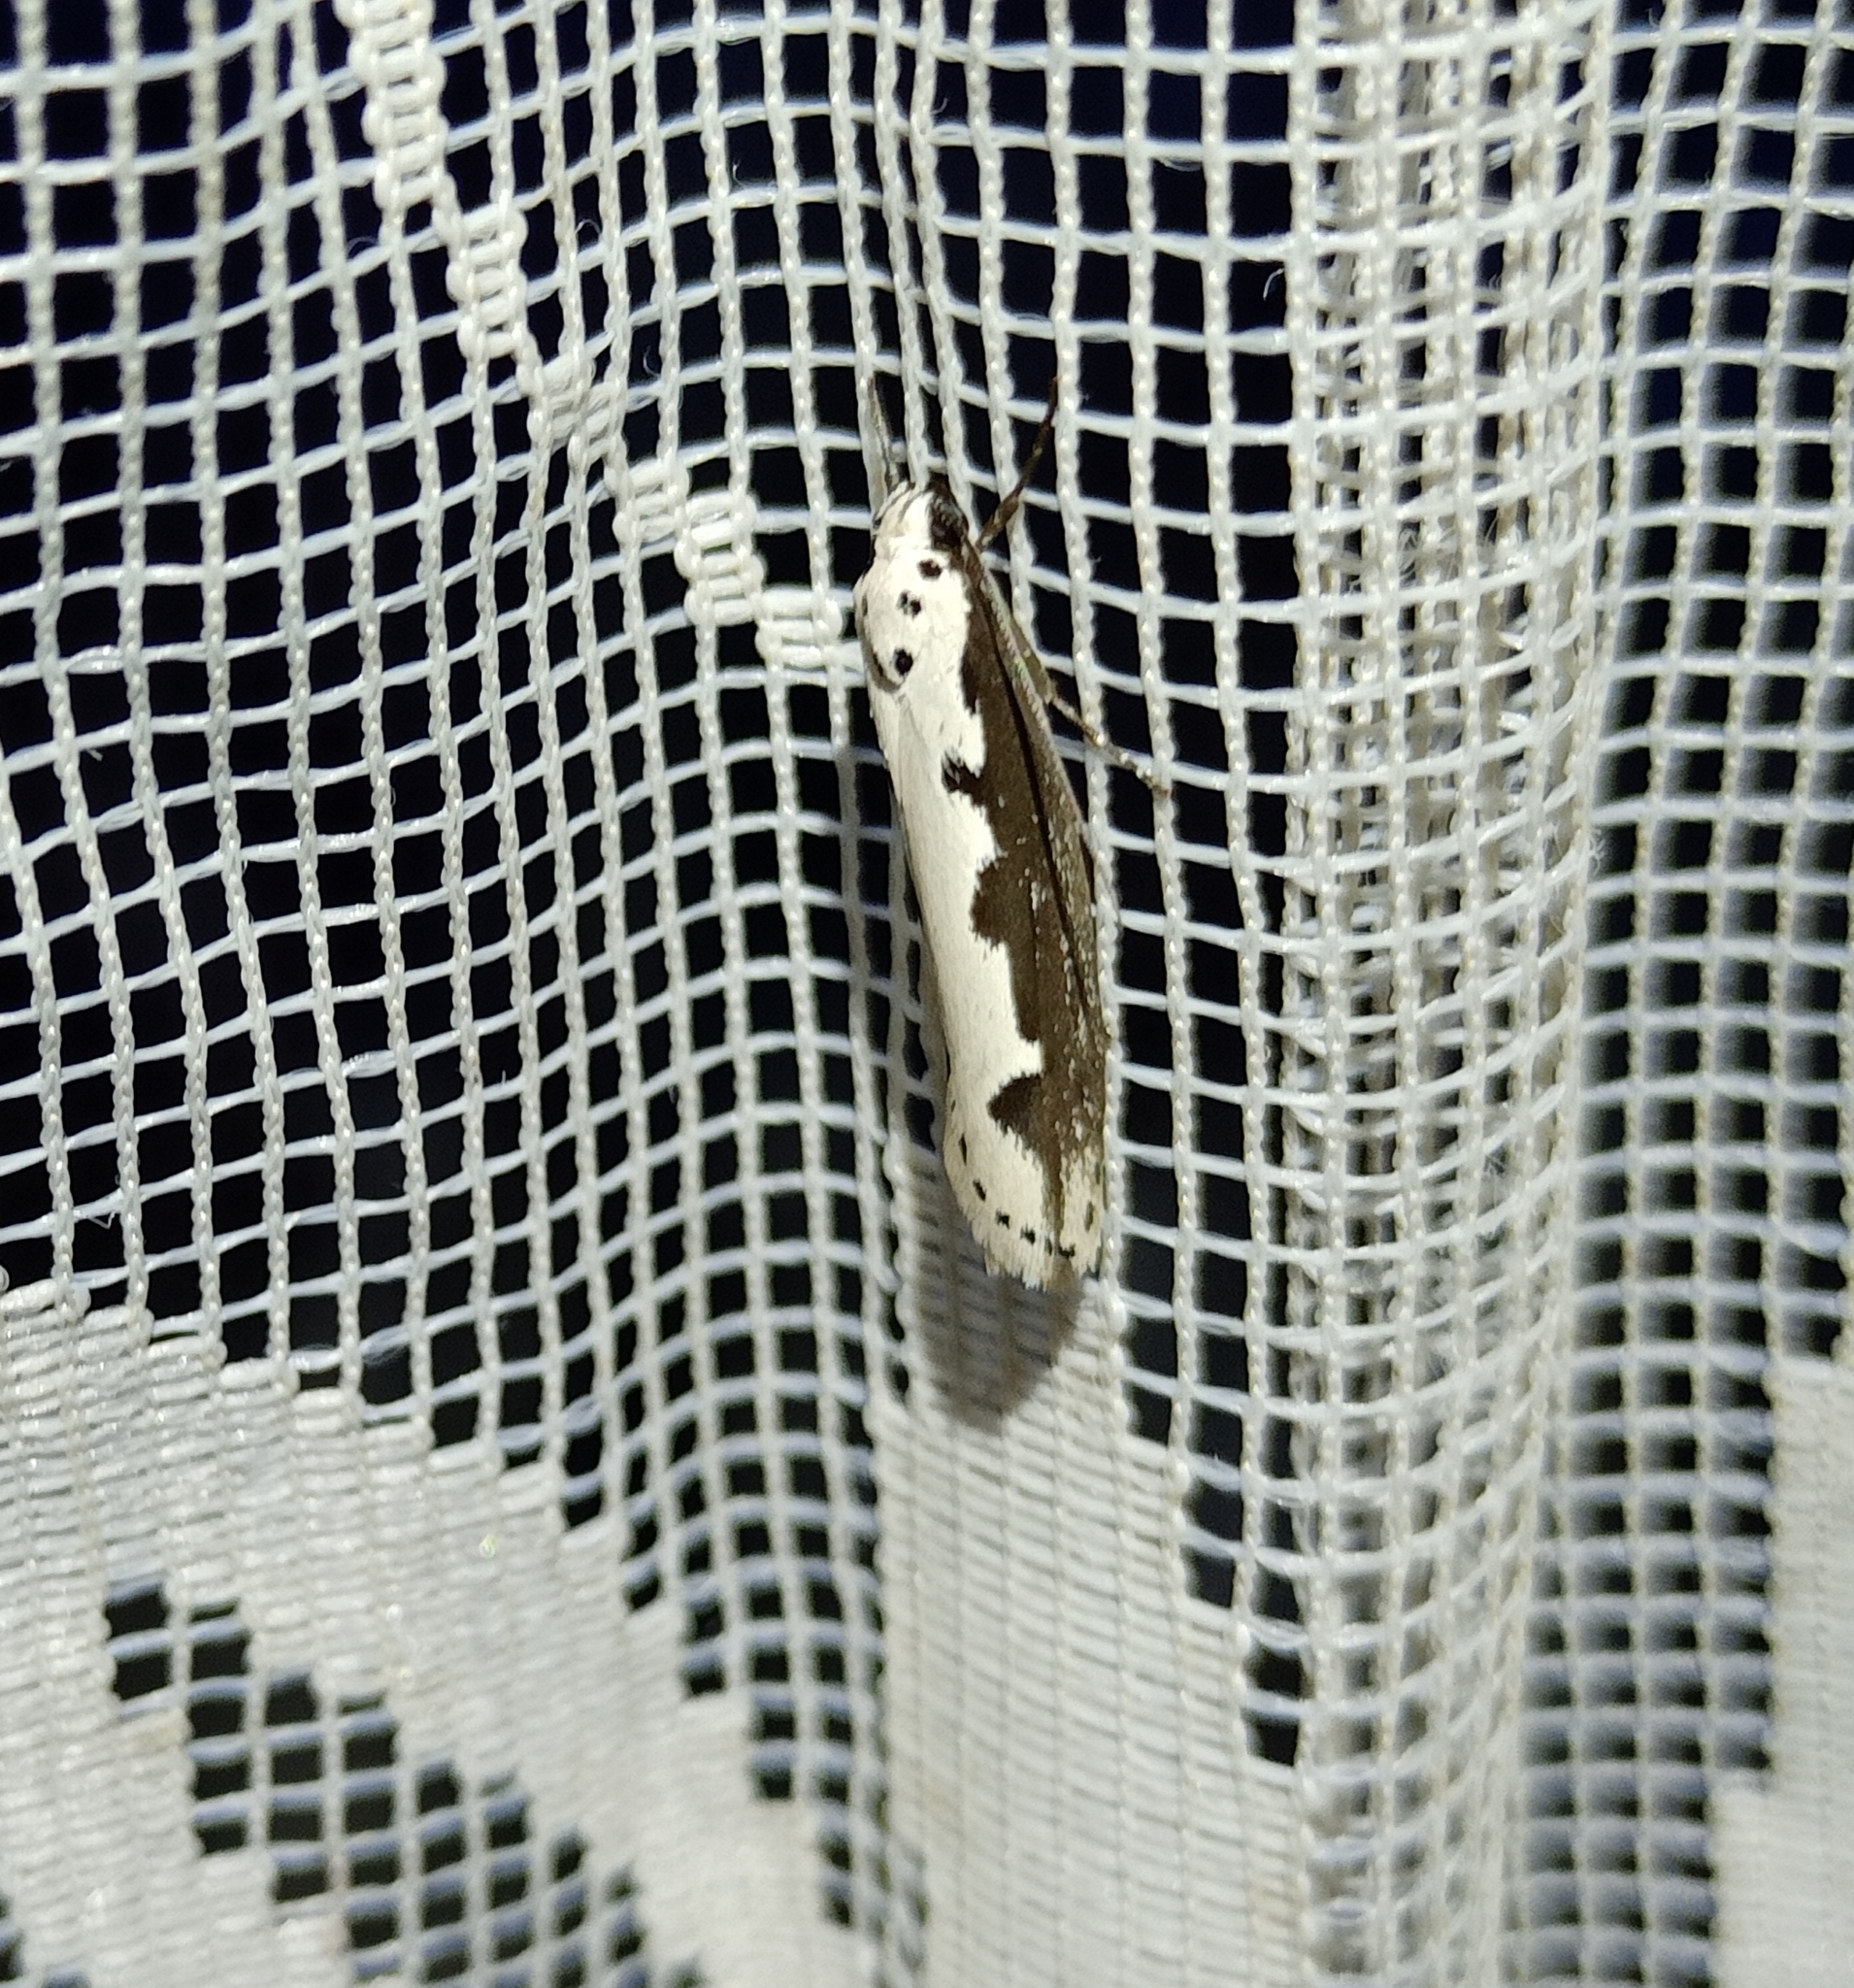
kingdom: Animalia
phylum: Arthropoda
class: Insecta
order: Lepidoptera
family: Ethmiidae
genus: Ethmia
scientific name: Ethmia bipunctella
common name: Bordered ermel
